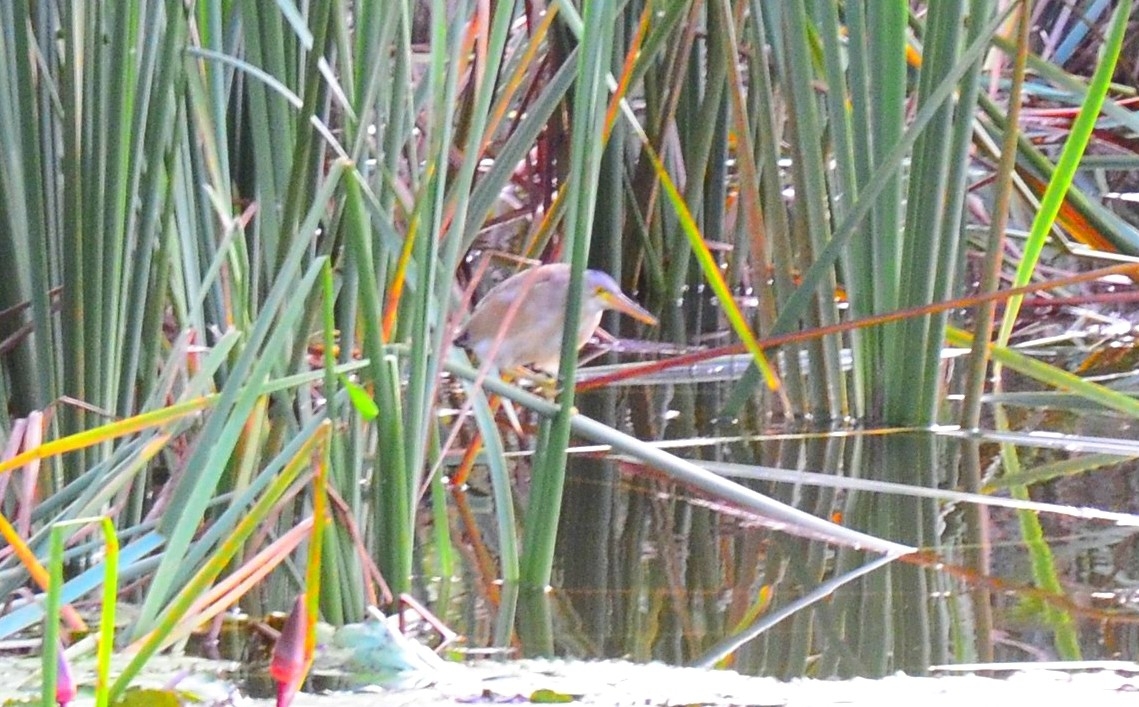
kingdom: Animalia
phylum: Chordata
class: Aves
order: Pelecaniformes
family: Ardeidae
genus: Ixobrychus
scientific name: Ixobrychus sinensis
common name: Yellow bittern
